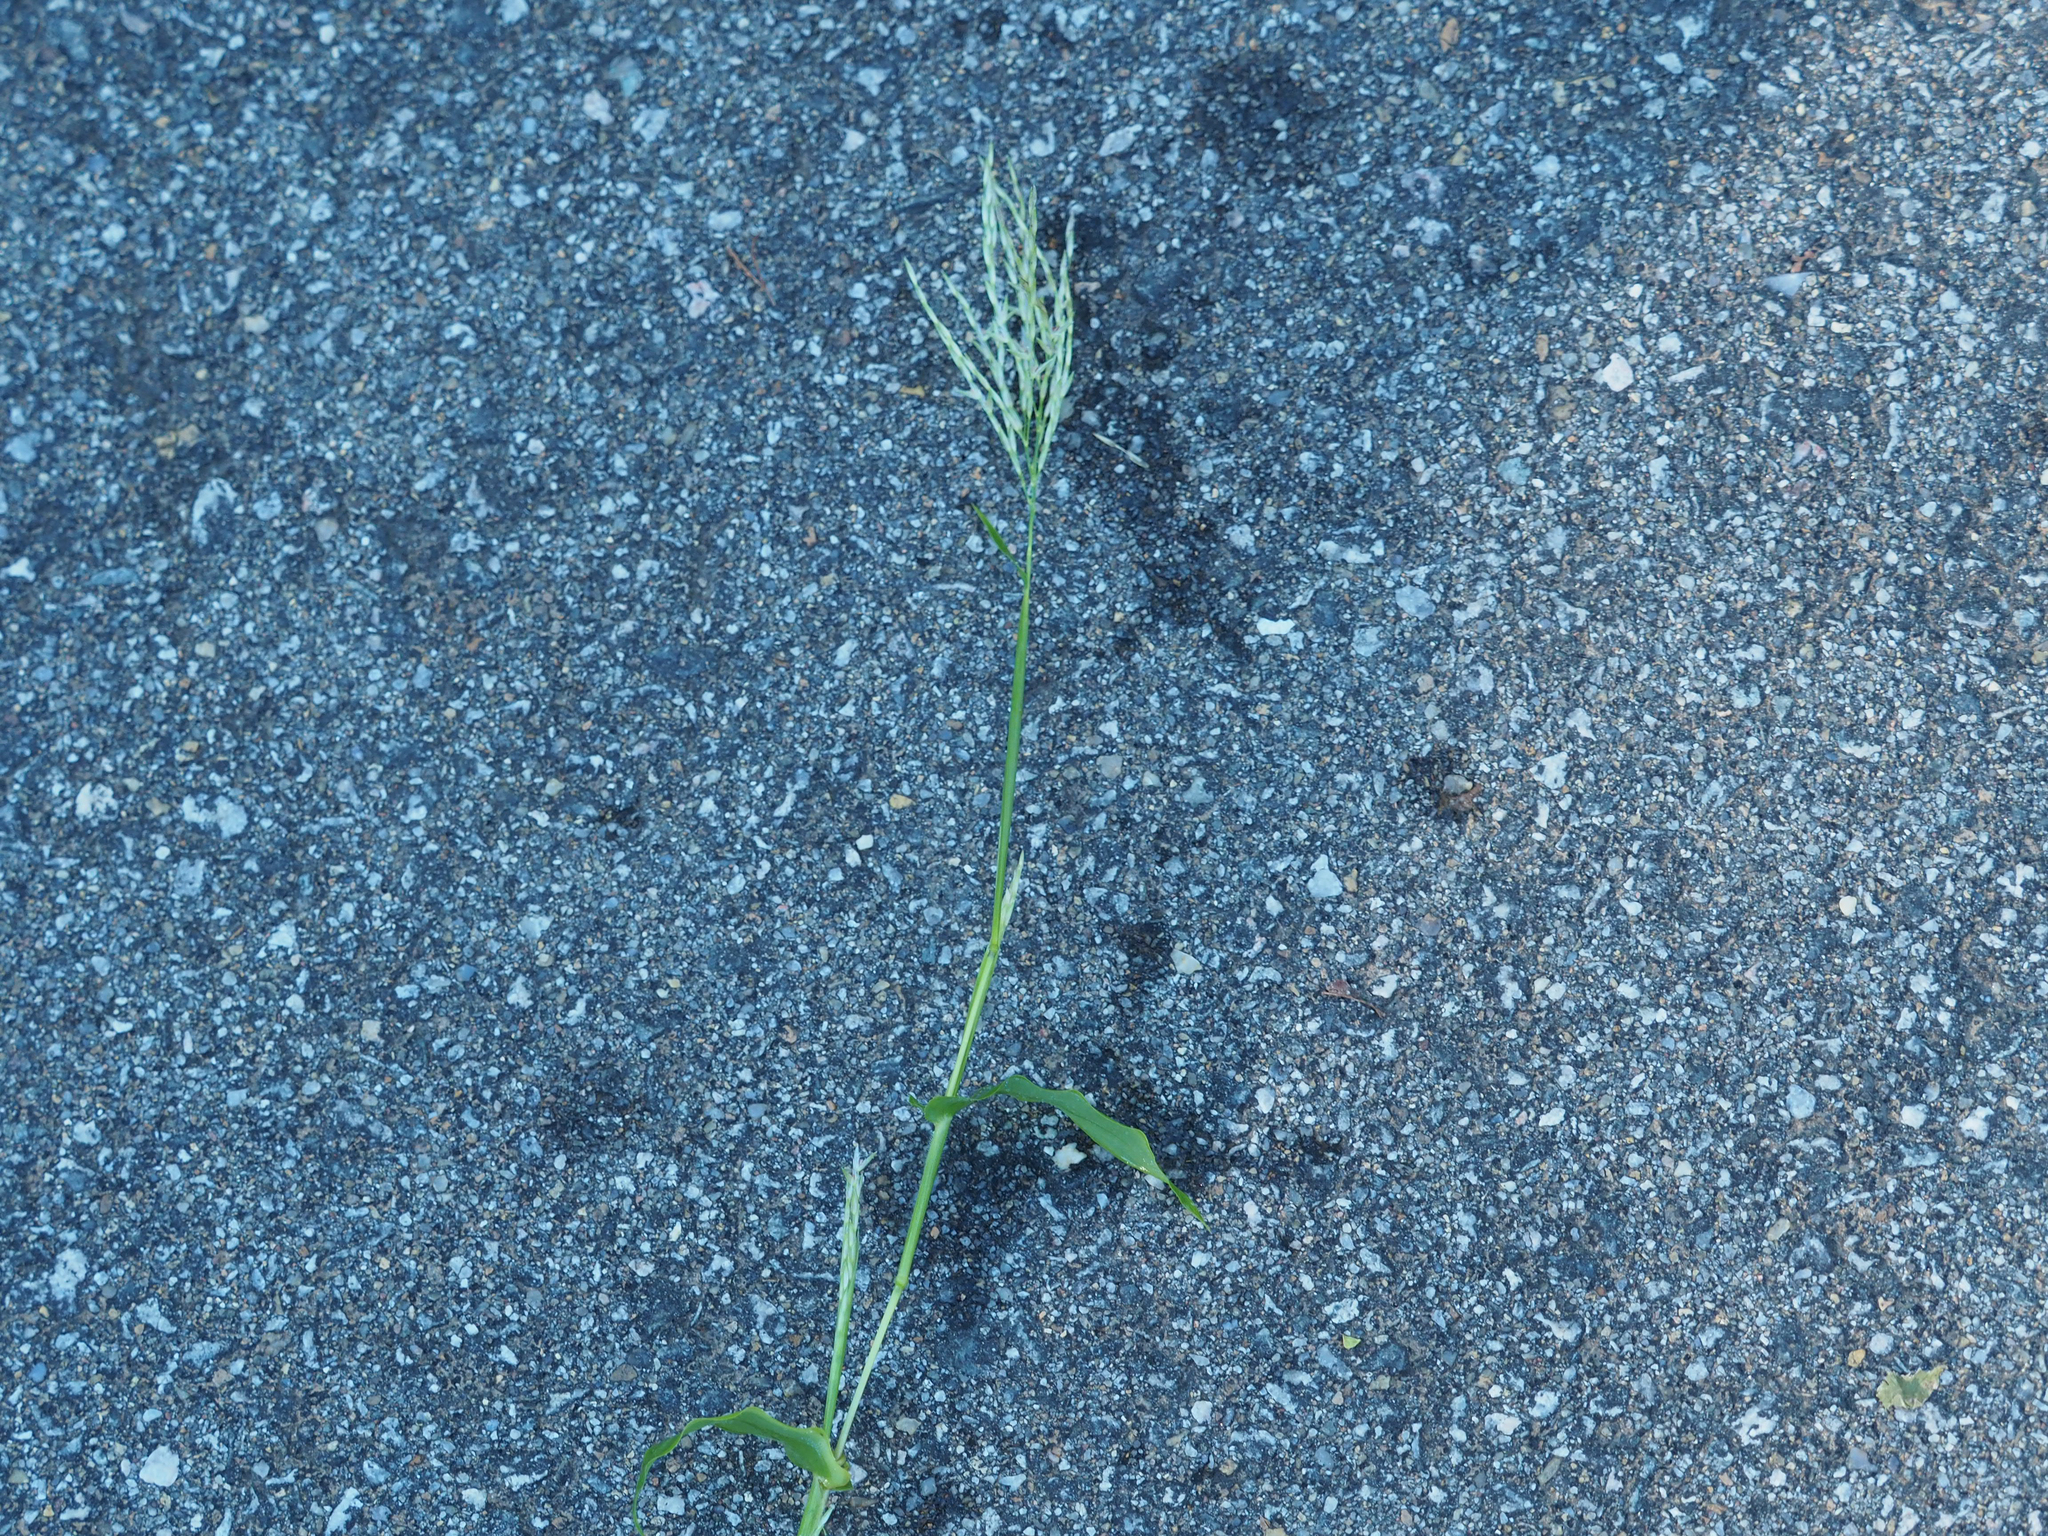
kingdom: Plantae
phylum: Tracheophyta
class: Liliopsida
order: Poales
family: Poaceae
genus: Arthraxon
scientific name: Arthraxon hispidus
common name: Small carpgrass
